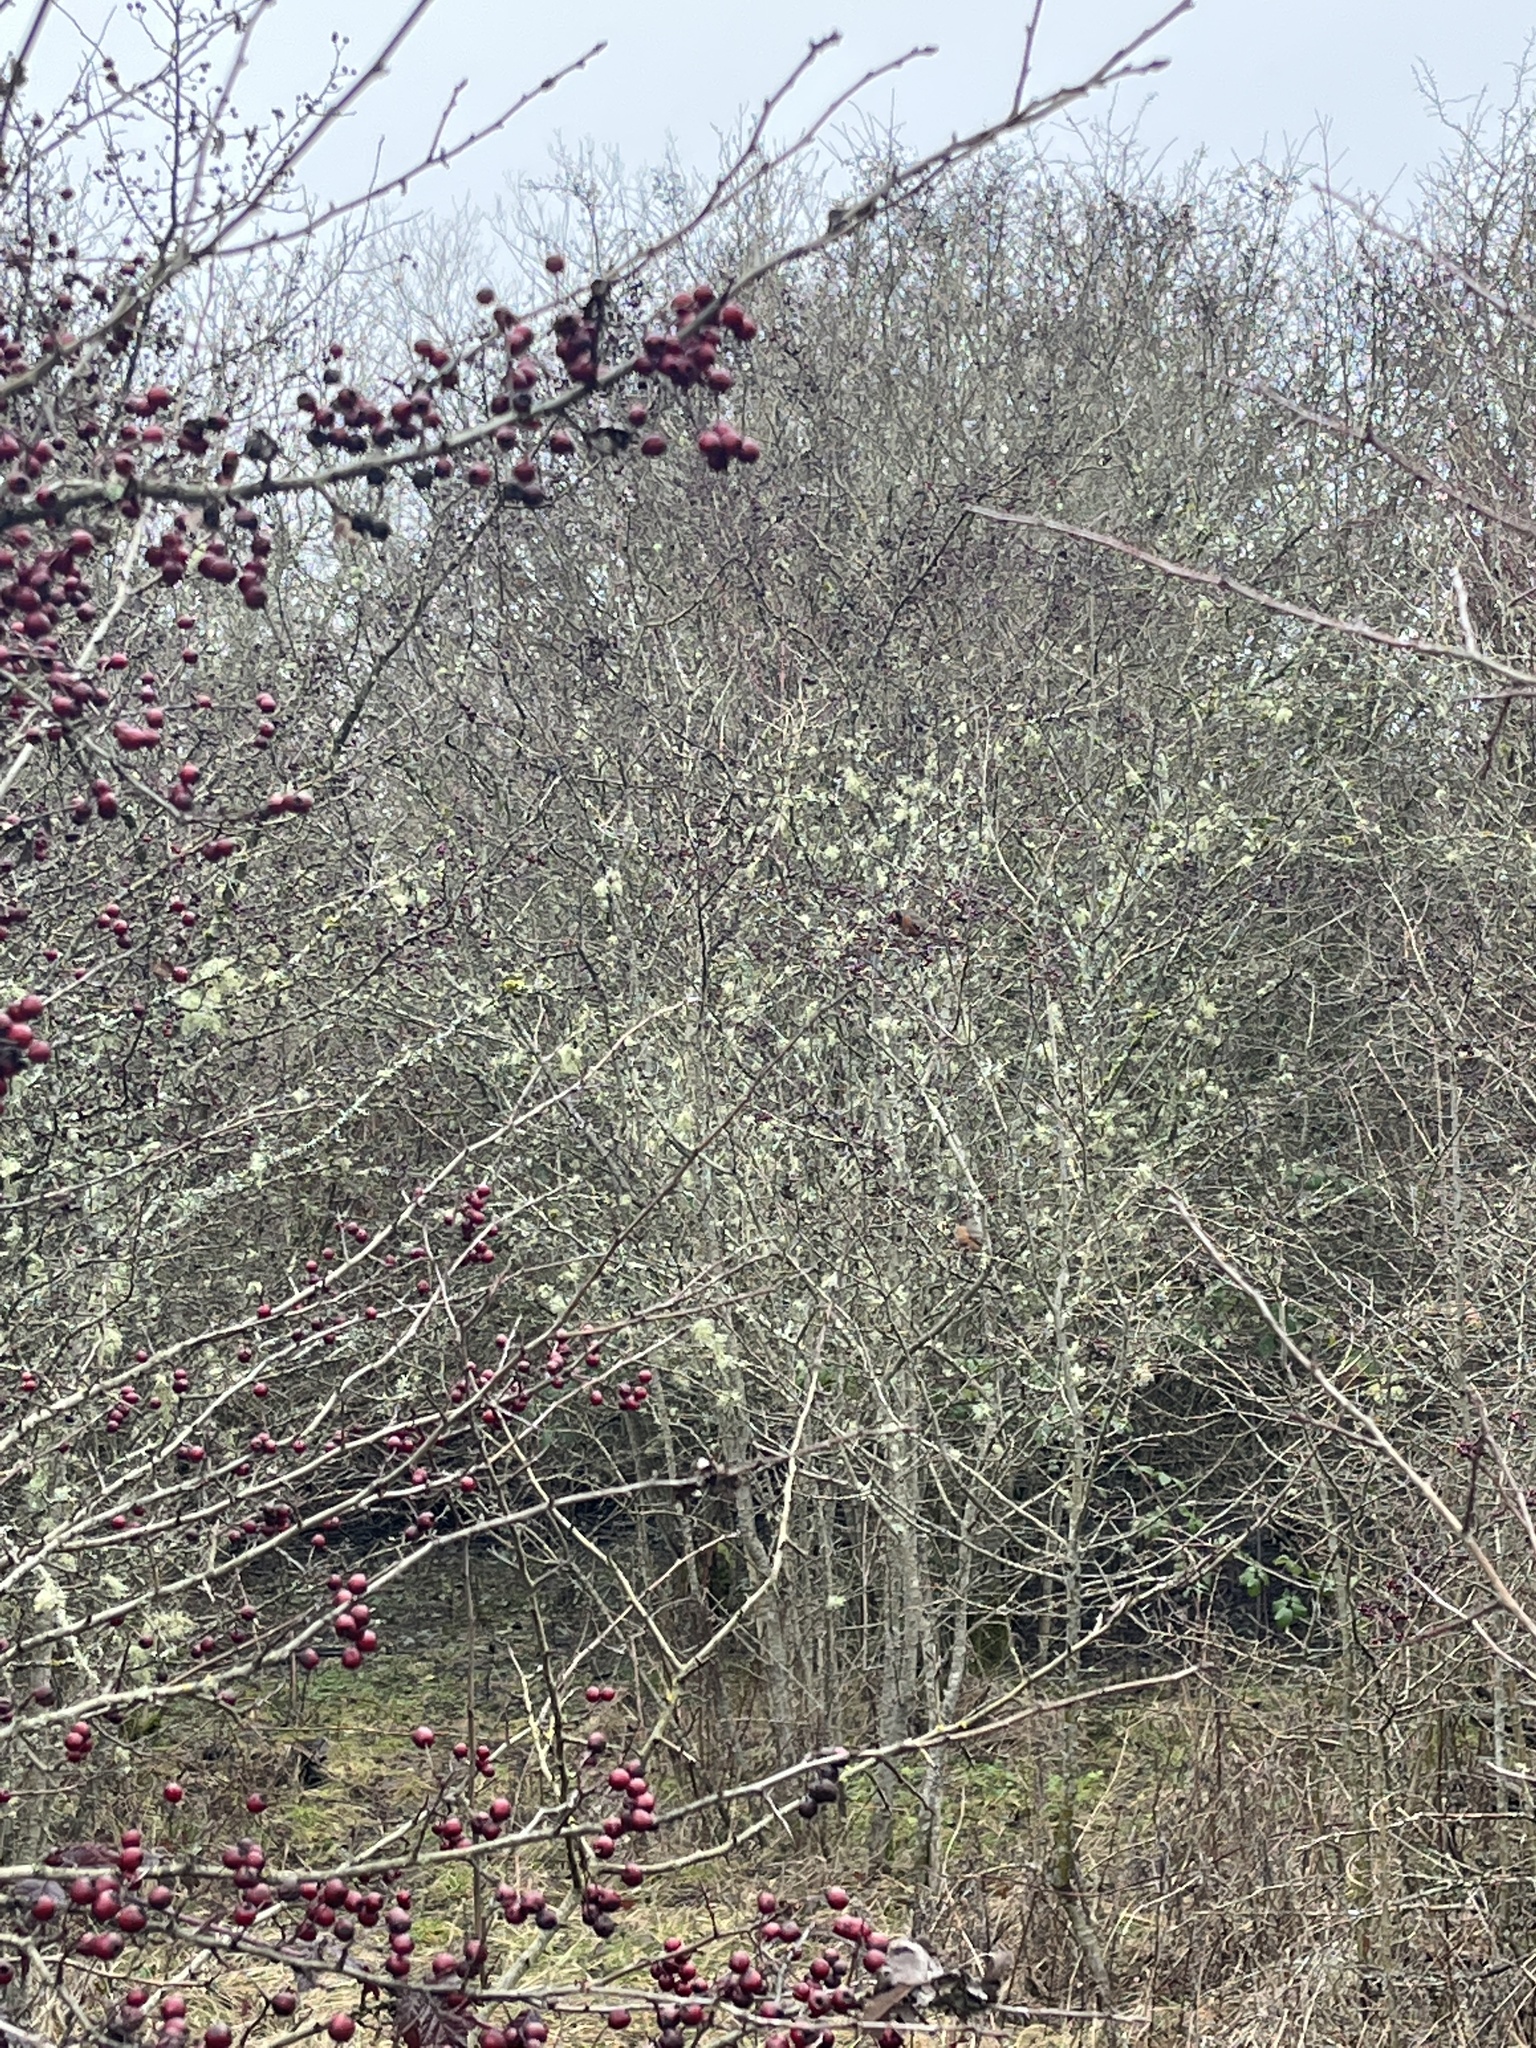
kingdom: Animalia
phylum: Chordata
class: Aves
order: Passeriformes
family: Turdidae
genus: Turdus
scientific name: Turdus migratorius
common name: American robin
